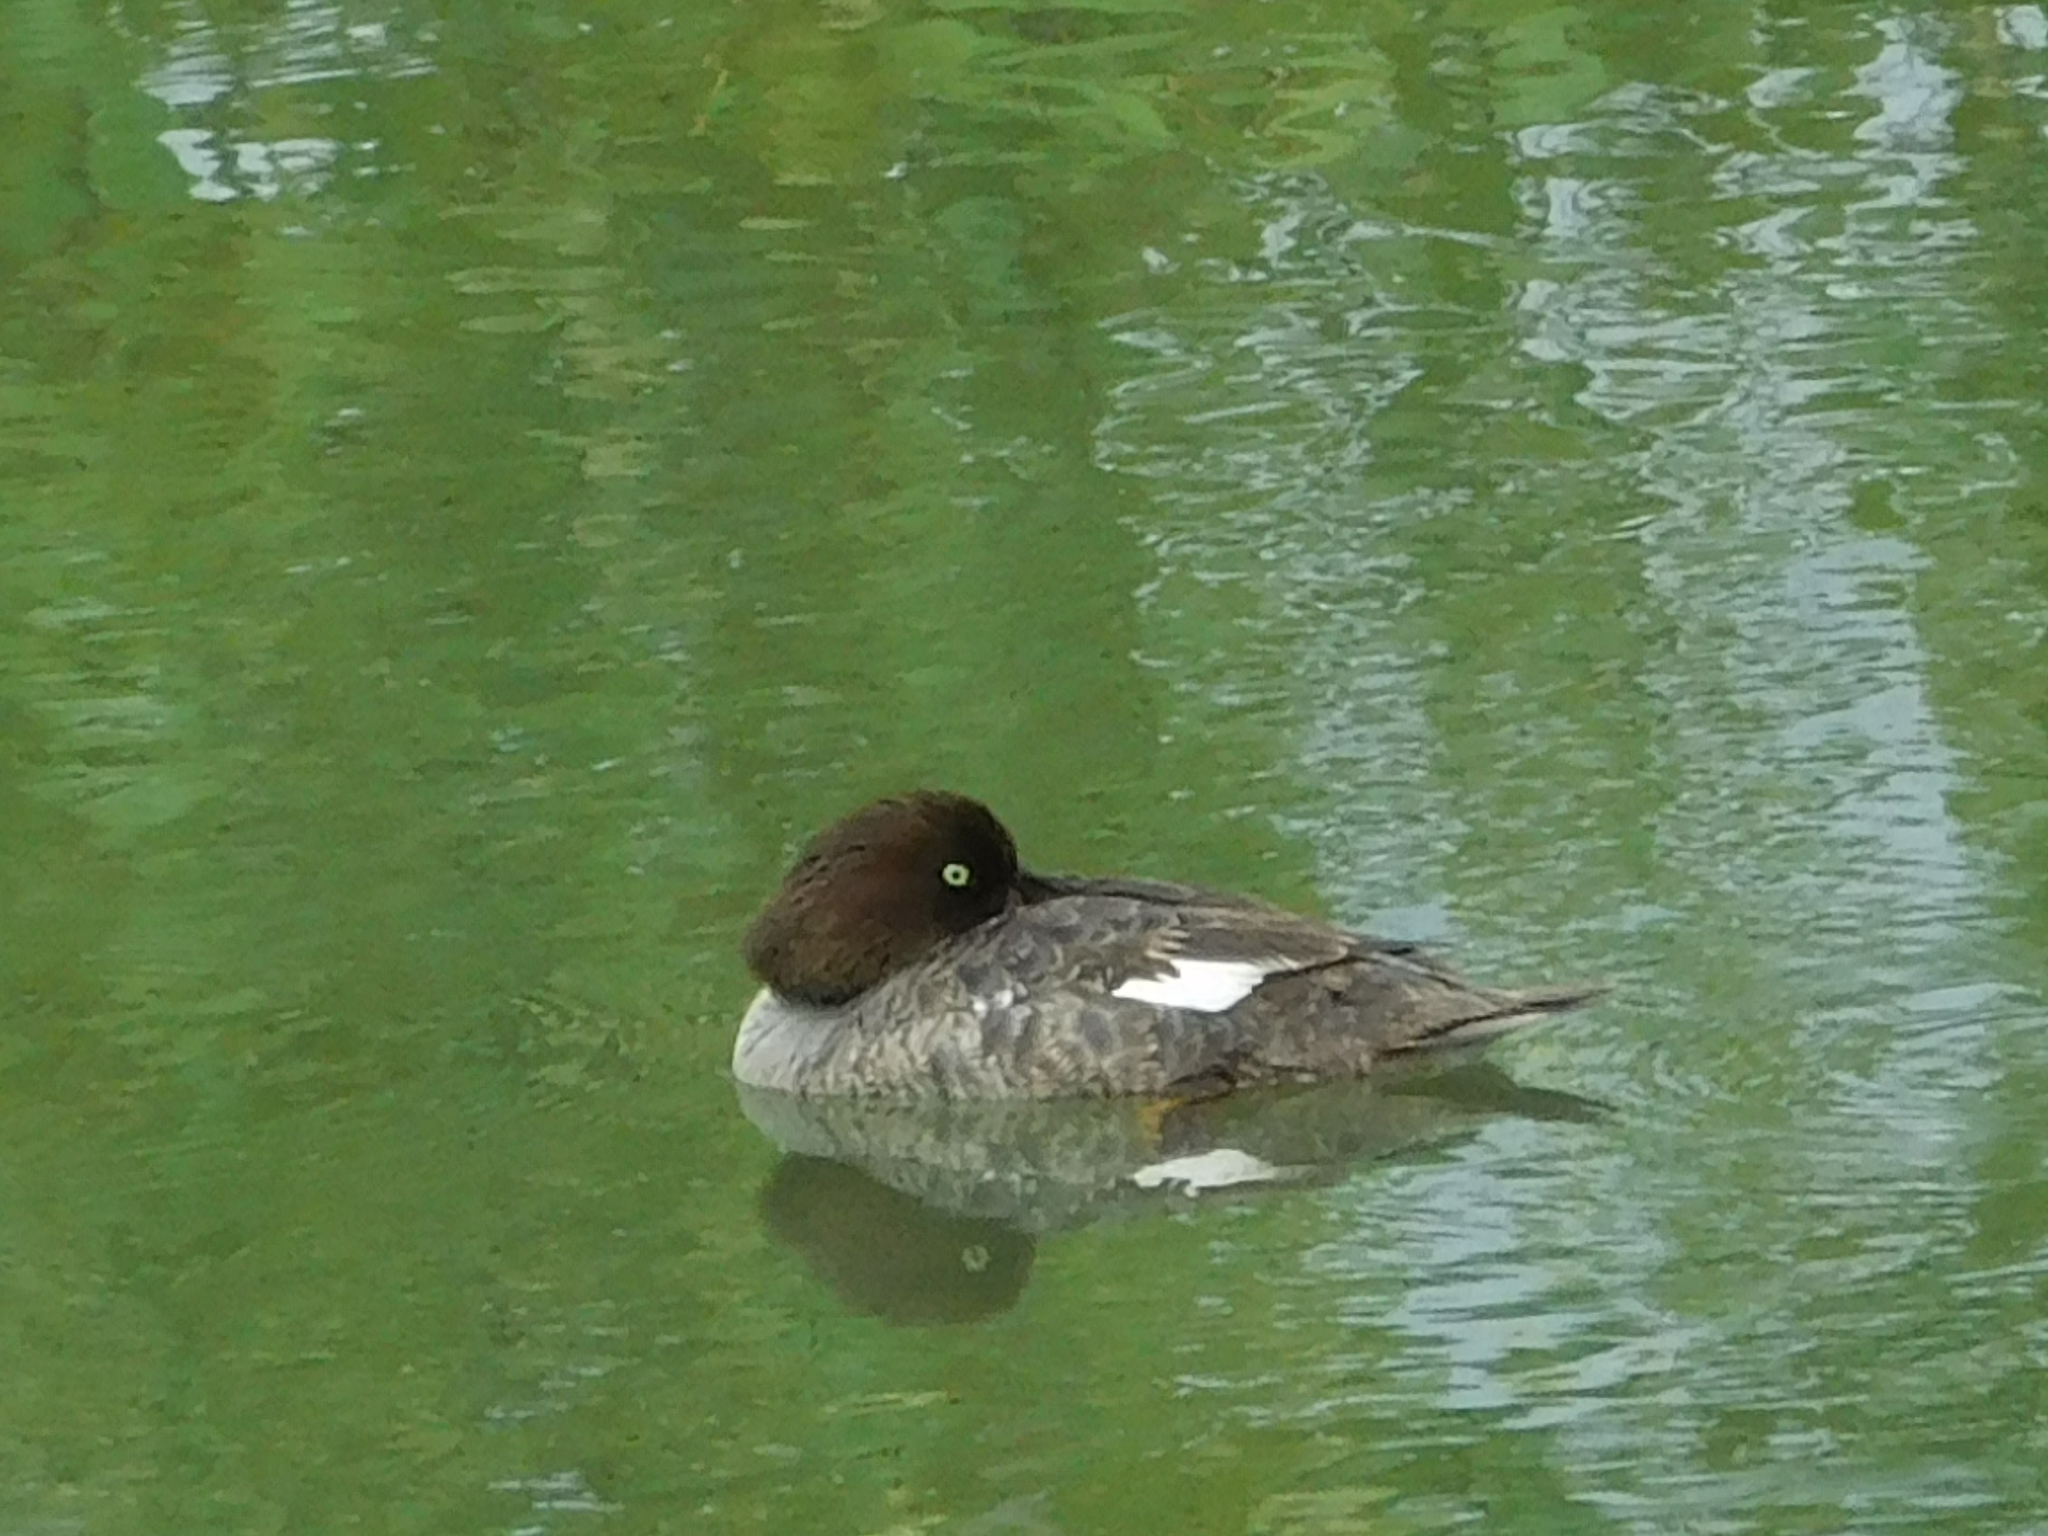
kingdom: Animalia
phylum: Chordata
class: Aves
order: Anseriformes
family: Anatidae
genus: Bucephala
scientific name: Bucephala islandica
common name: Barrow's goldeneye
